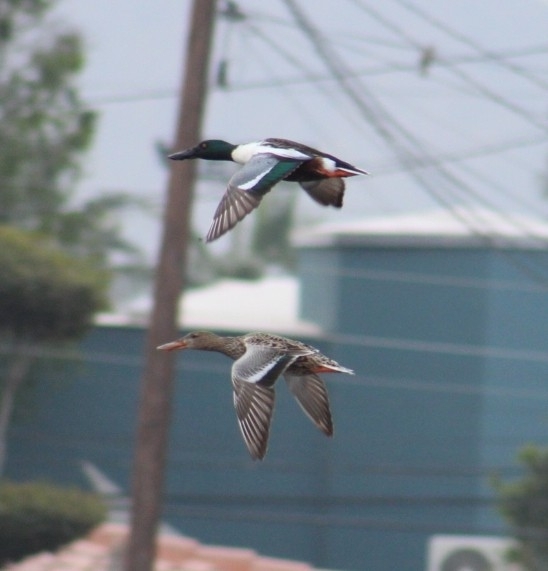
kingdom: Animalia
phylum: Chordata
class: Aves
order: Anseriformes
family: Anatidae
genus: Spatula
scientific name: Spatula clypeata
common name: Northern shoveler
